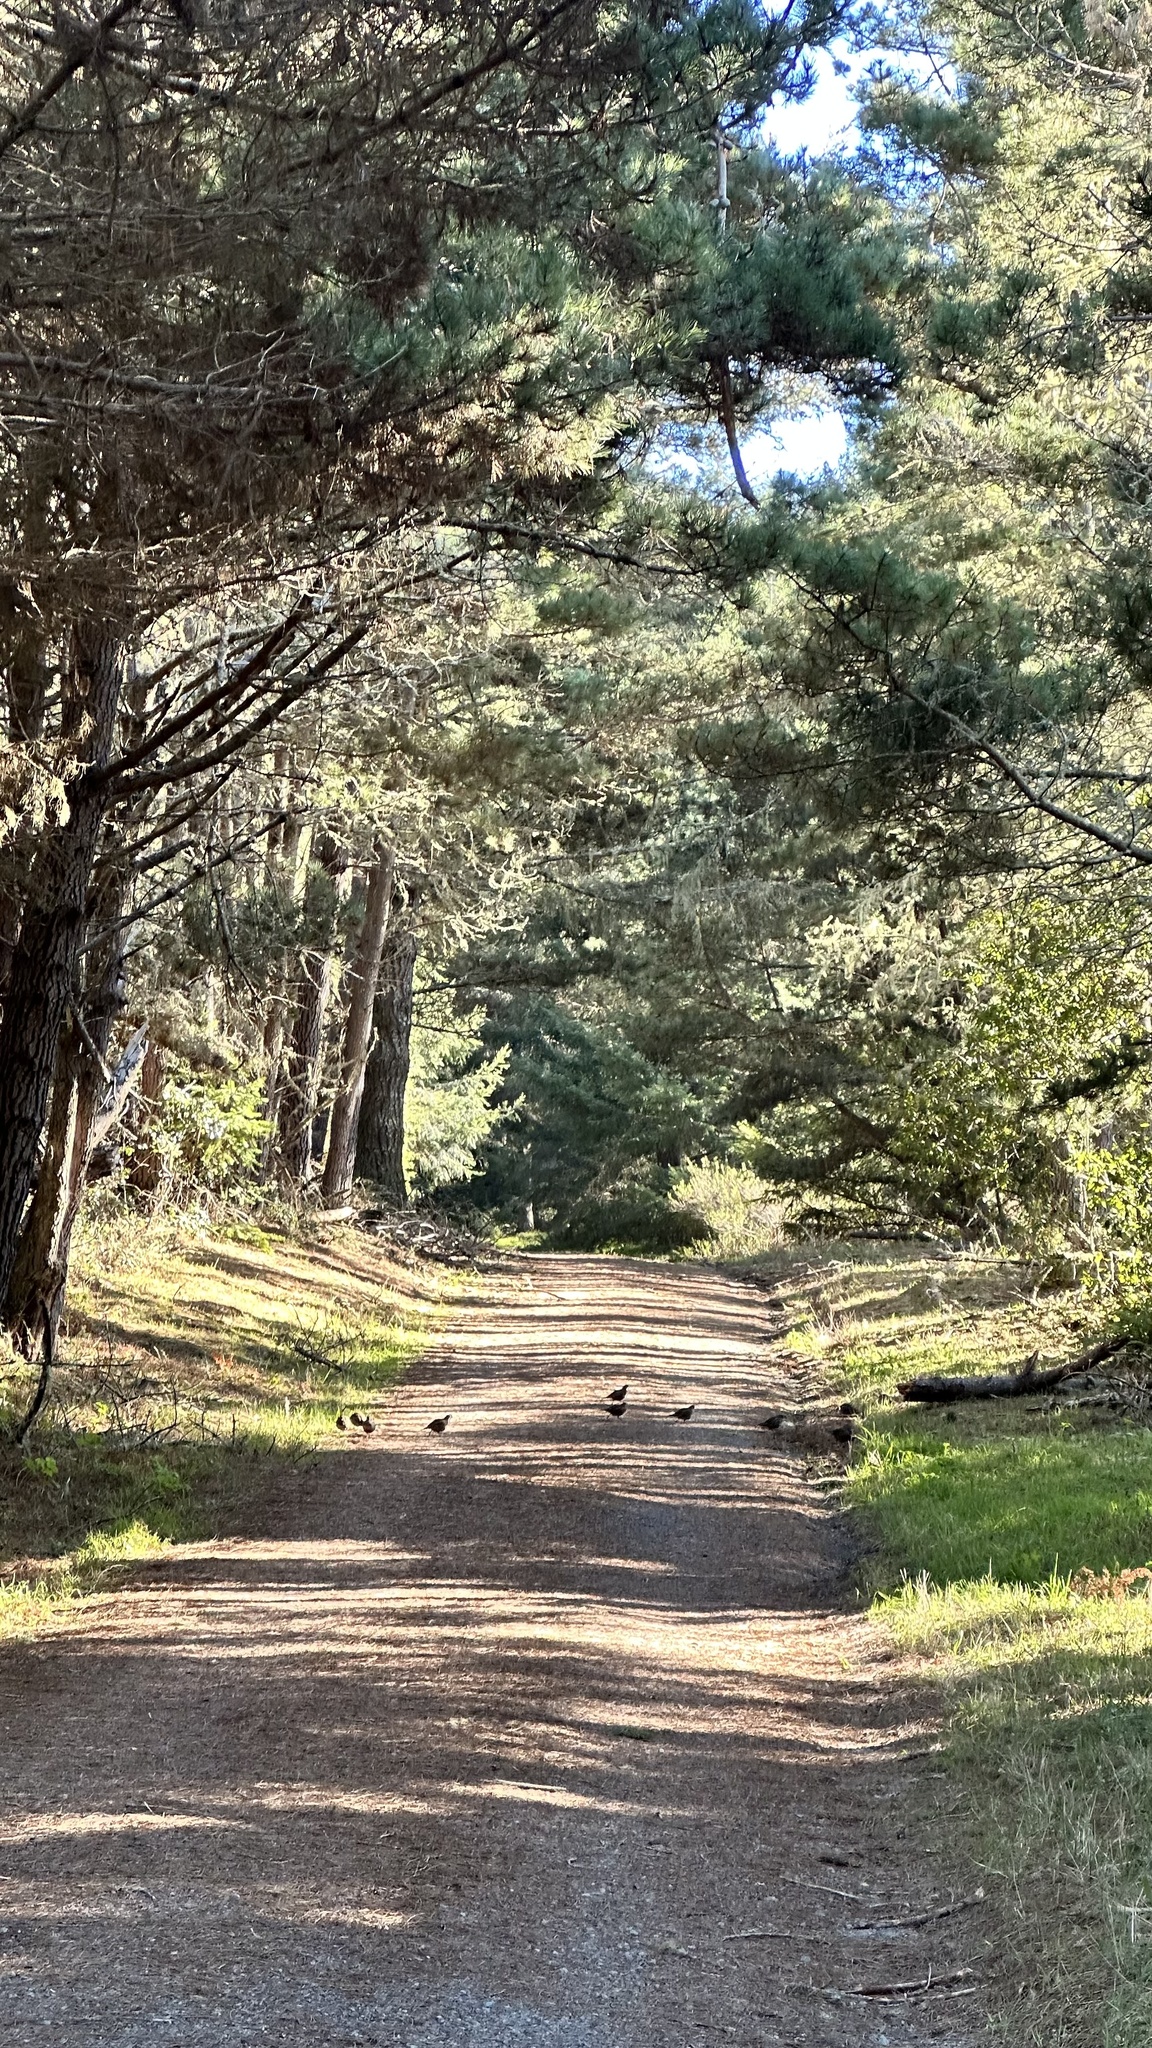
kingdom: Animalia
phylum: Chordata
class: Aves
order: Galliformes
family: Odontophoridae
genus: Callipepla
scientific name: Callipepla californica
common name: California quail
